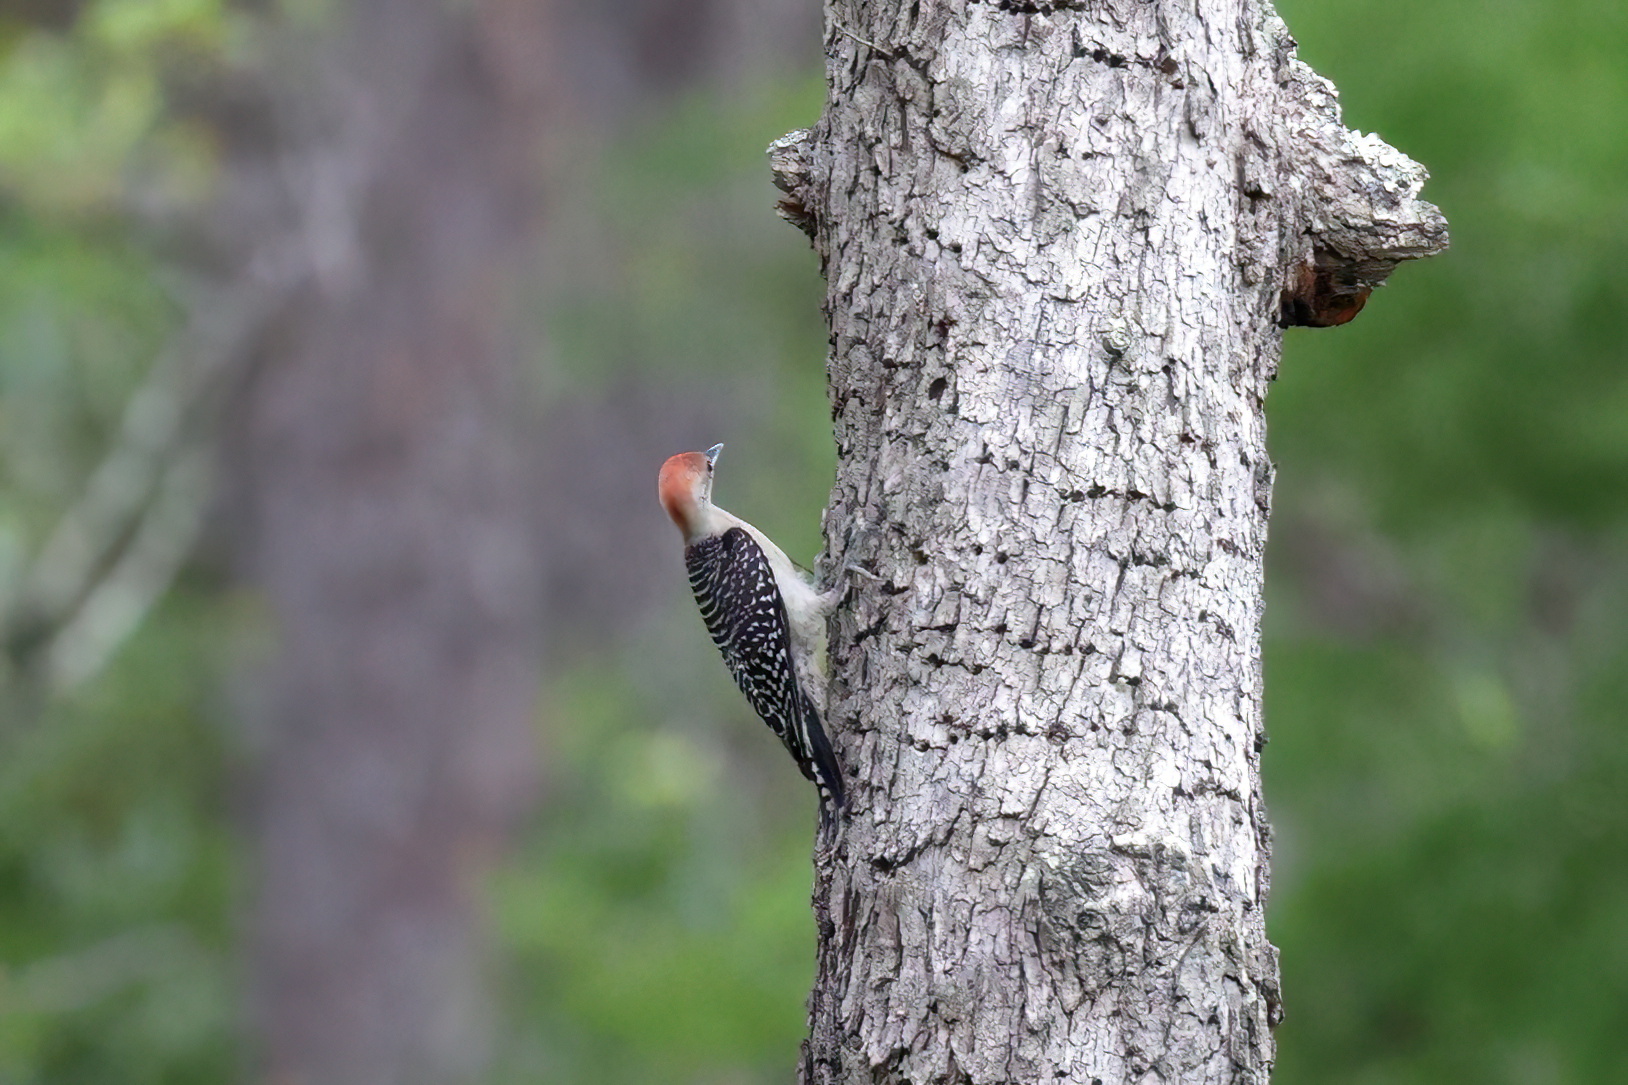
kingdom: Animalia
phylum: Chordata
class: Aves
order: Piciformes
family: Picidae
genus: Melanerpes
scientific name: Melanerpes carolinus
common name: Red-bellied woodpecker
